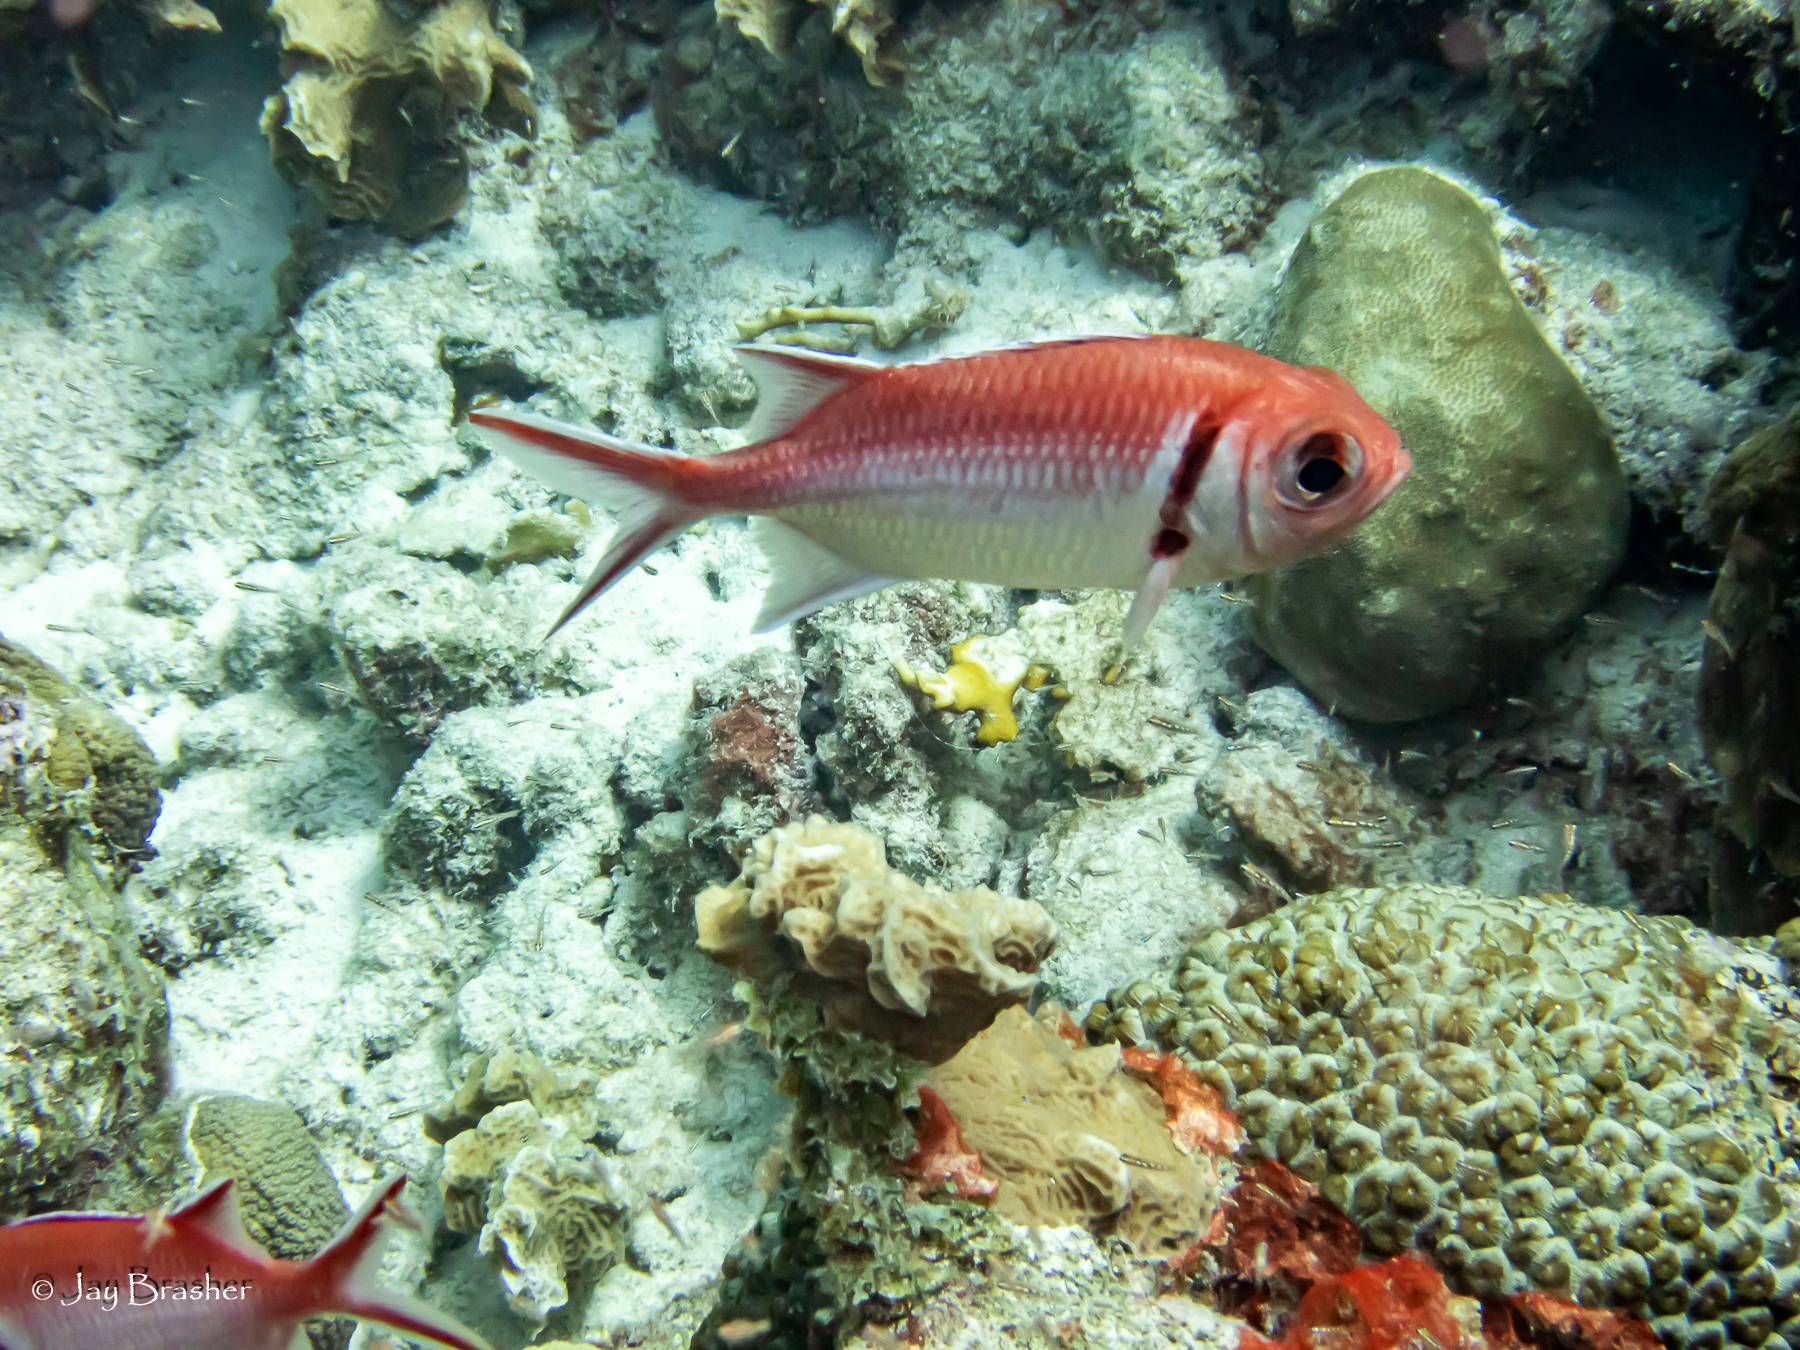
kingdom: Animalia
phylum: Cnidaria
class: Anthozoa
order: Scleractinia
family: Montastraeidae
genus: Montastraea
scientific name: Montastraea cavernosa
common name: Great star coral
